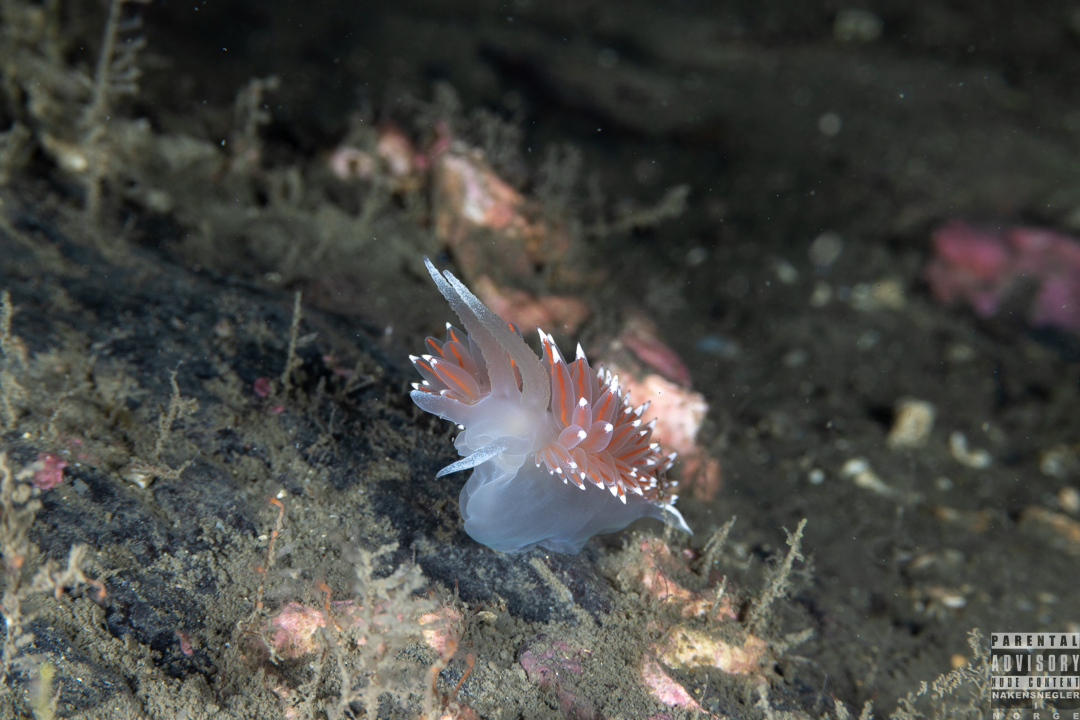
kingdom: Animalia
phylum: Mollusca
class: Gastropoda
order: Nudibranchia
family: Coryphellidae
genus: Coryphella
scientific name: Coryphella nobilis
